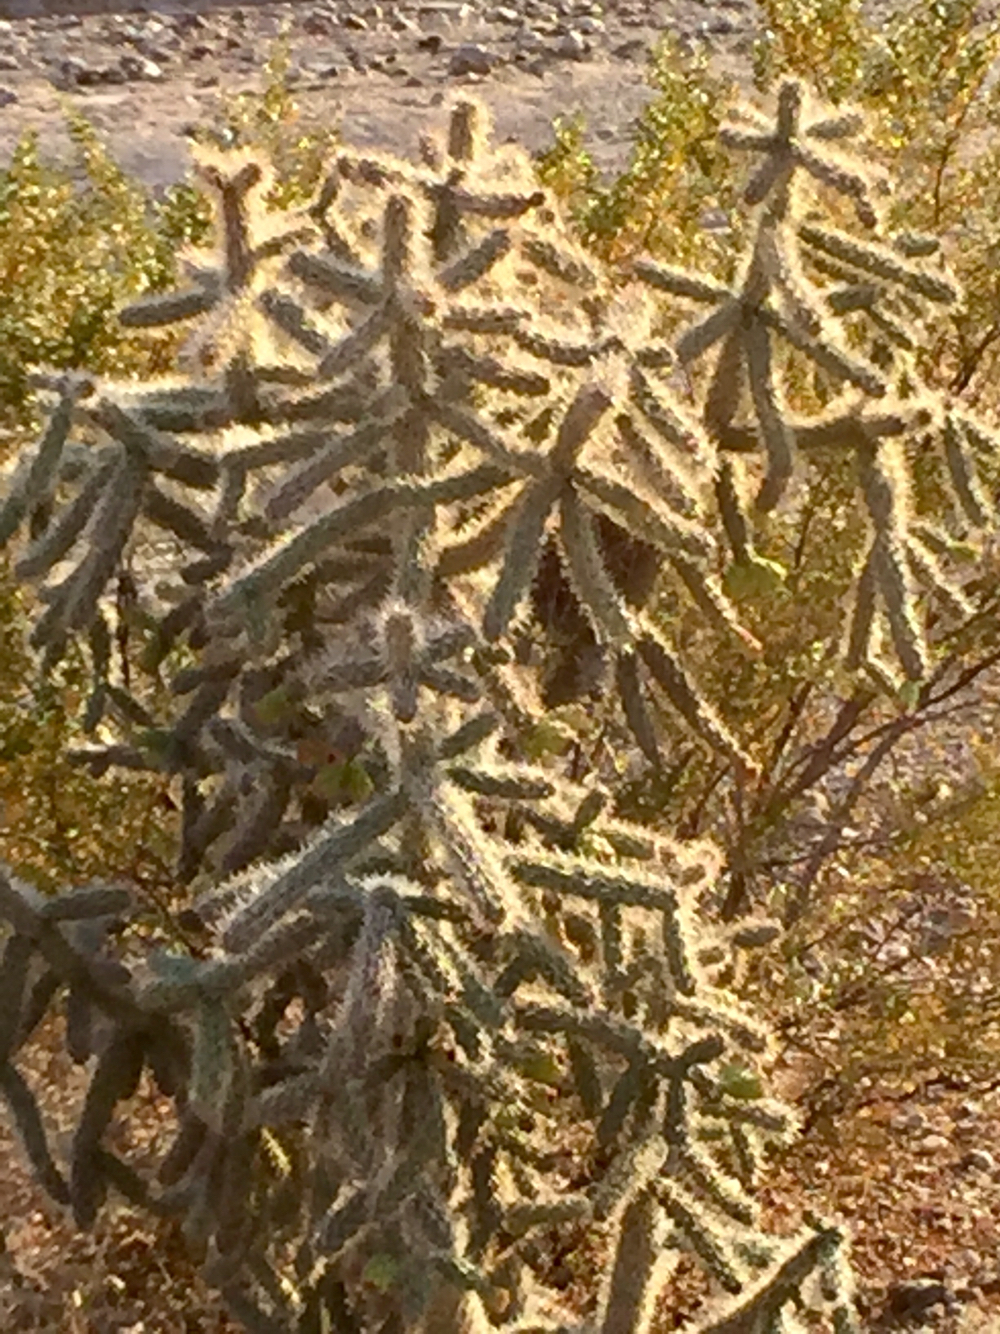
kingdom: Plantae
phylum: Tracheophyta
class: Magnoliopsida
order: Caryophyllales
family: Cactaceae
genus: Cylindropuntia
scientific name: Cylindropuntia imbricata
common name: Candelabrum cactus
